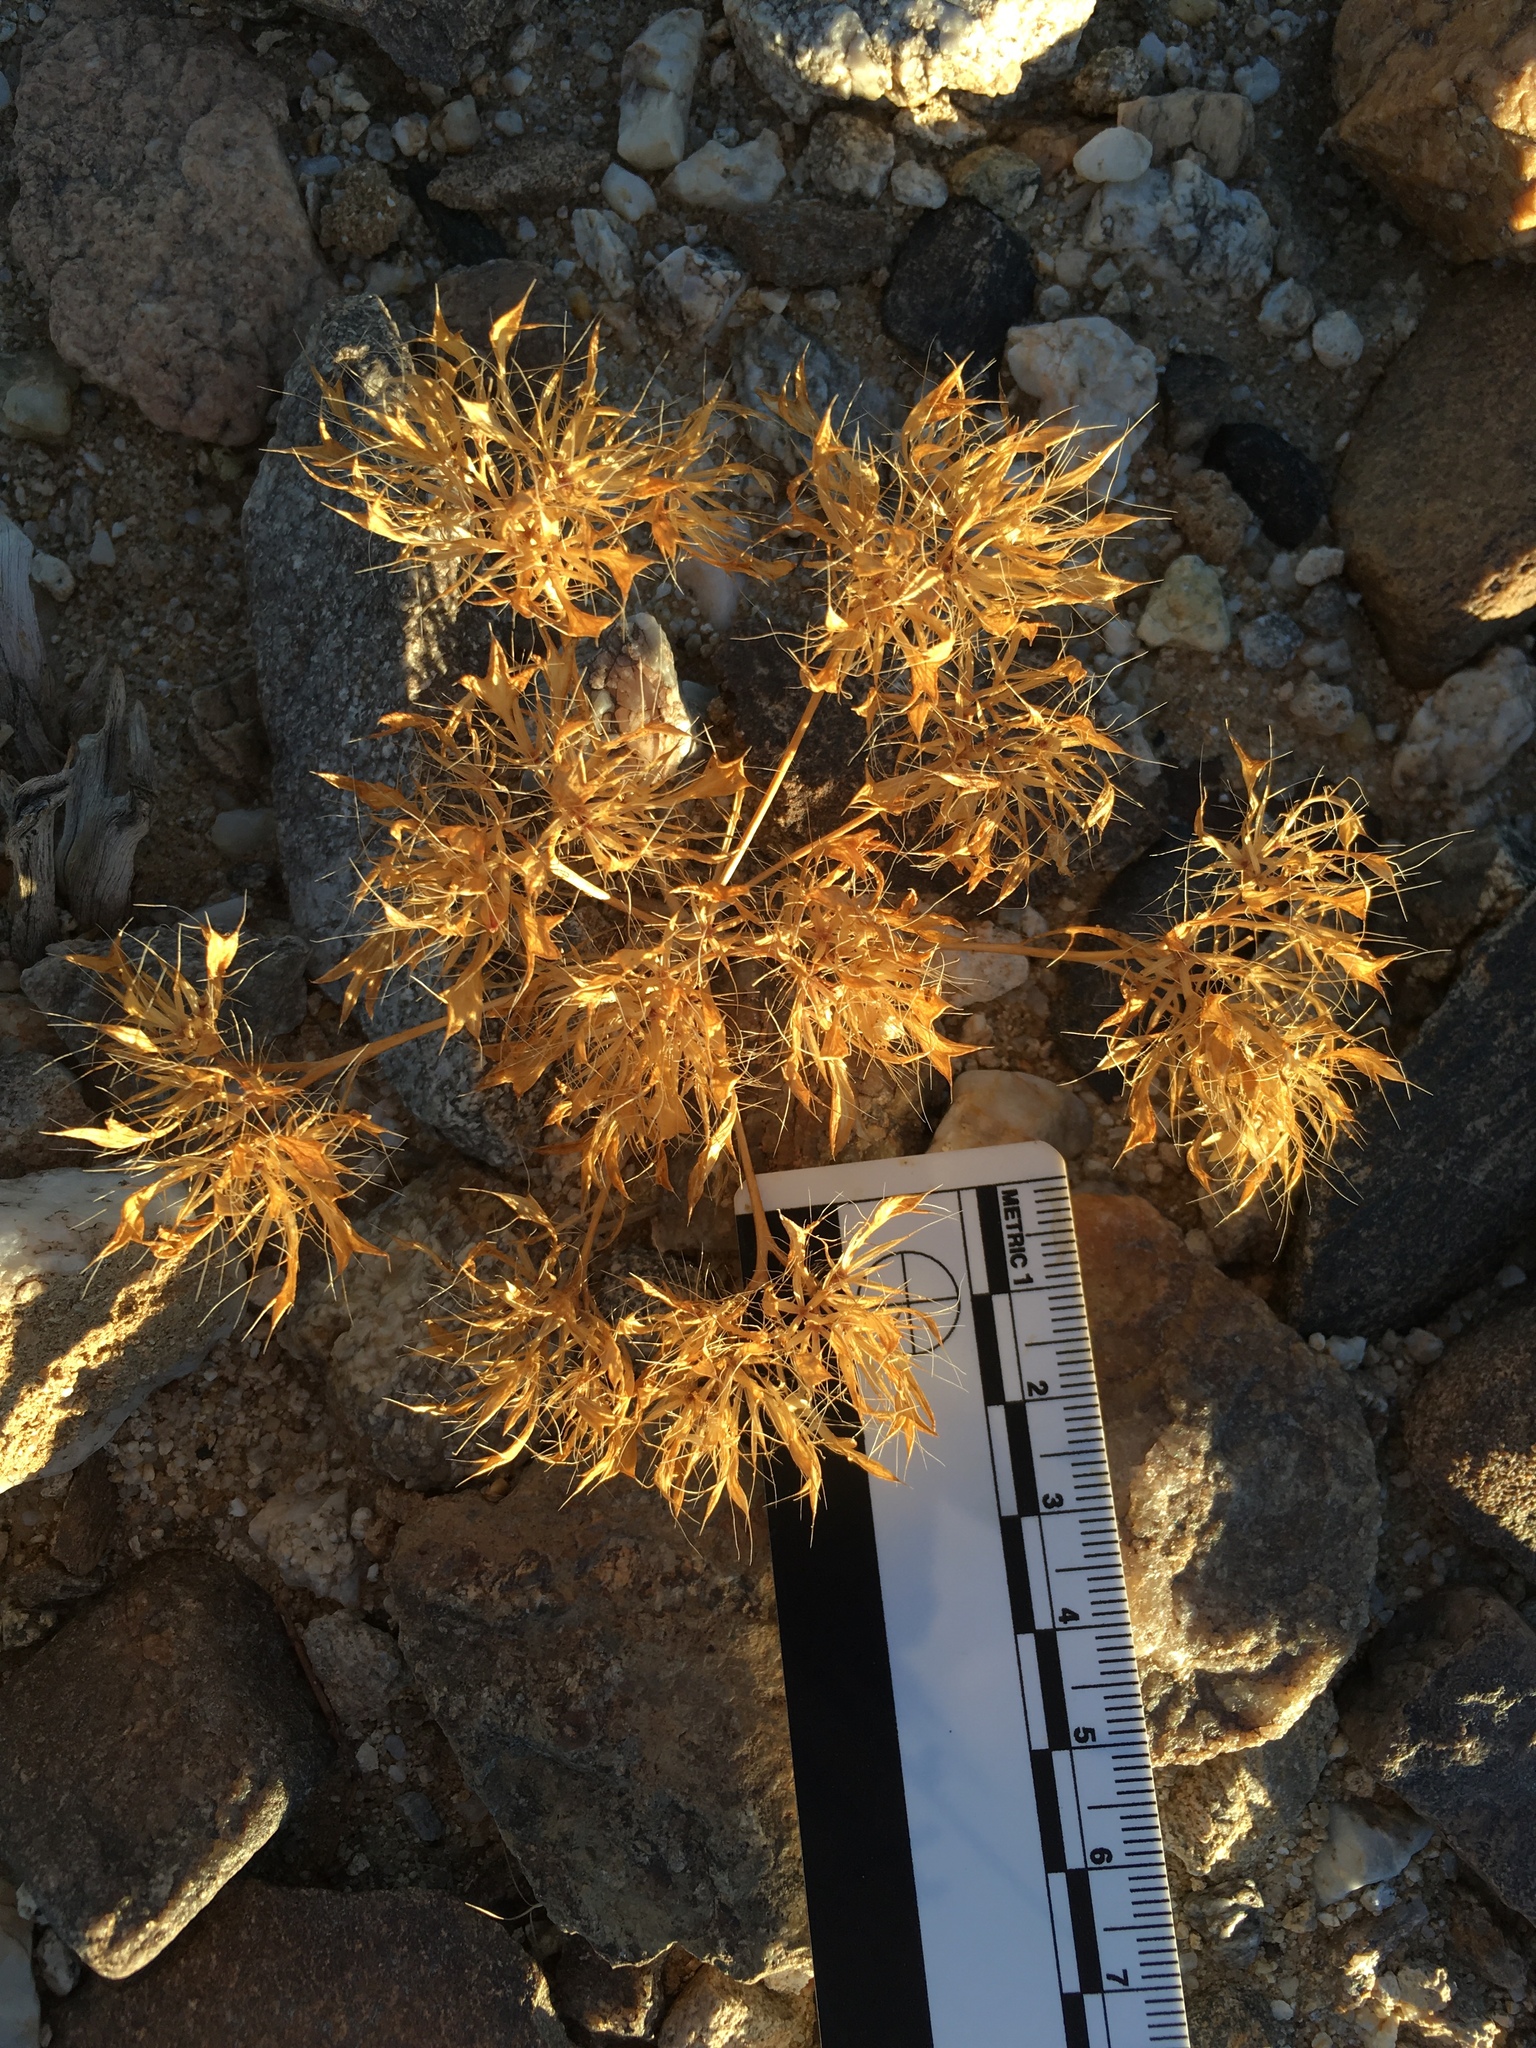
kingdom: Plantae
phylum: Tracheophyta
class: Magnoliopsida
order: Ericales
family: Polemoniaceae
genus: Langloisia
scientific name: Langloisia setosissima
